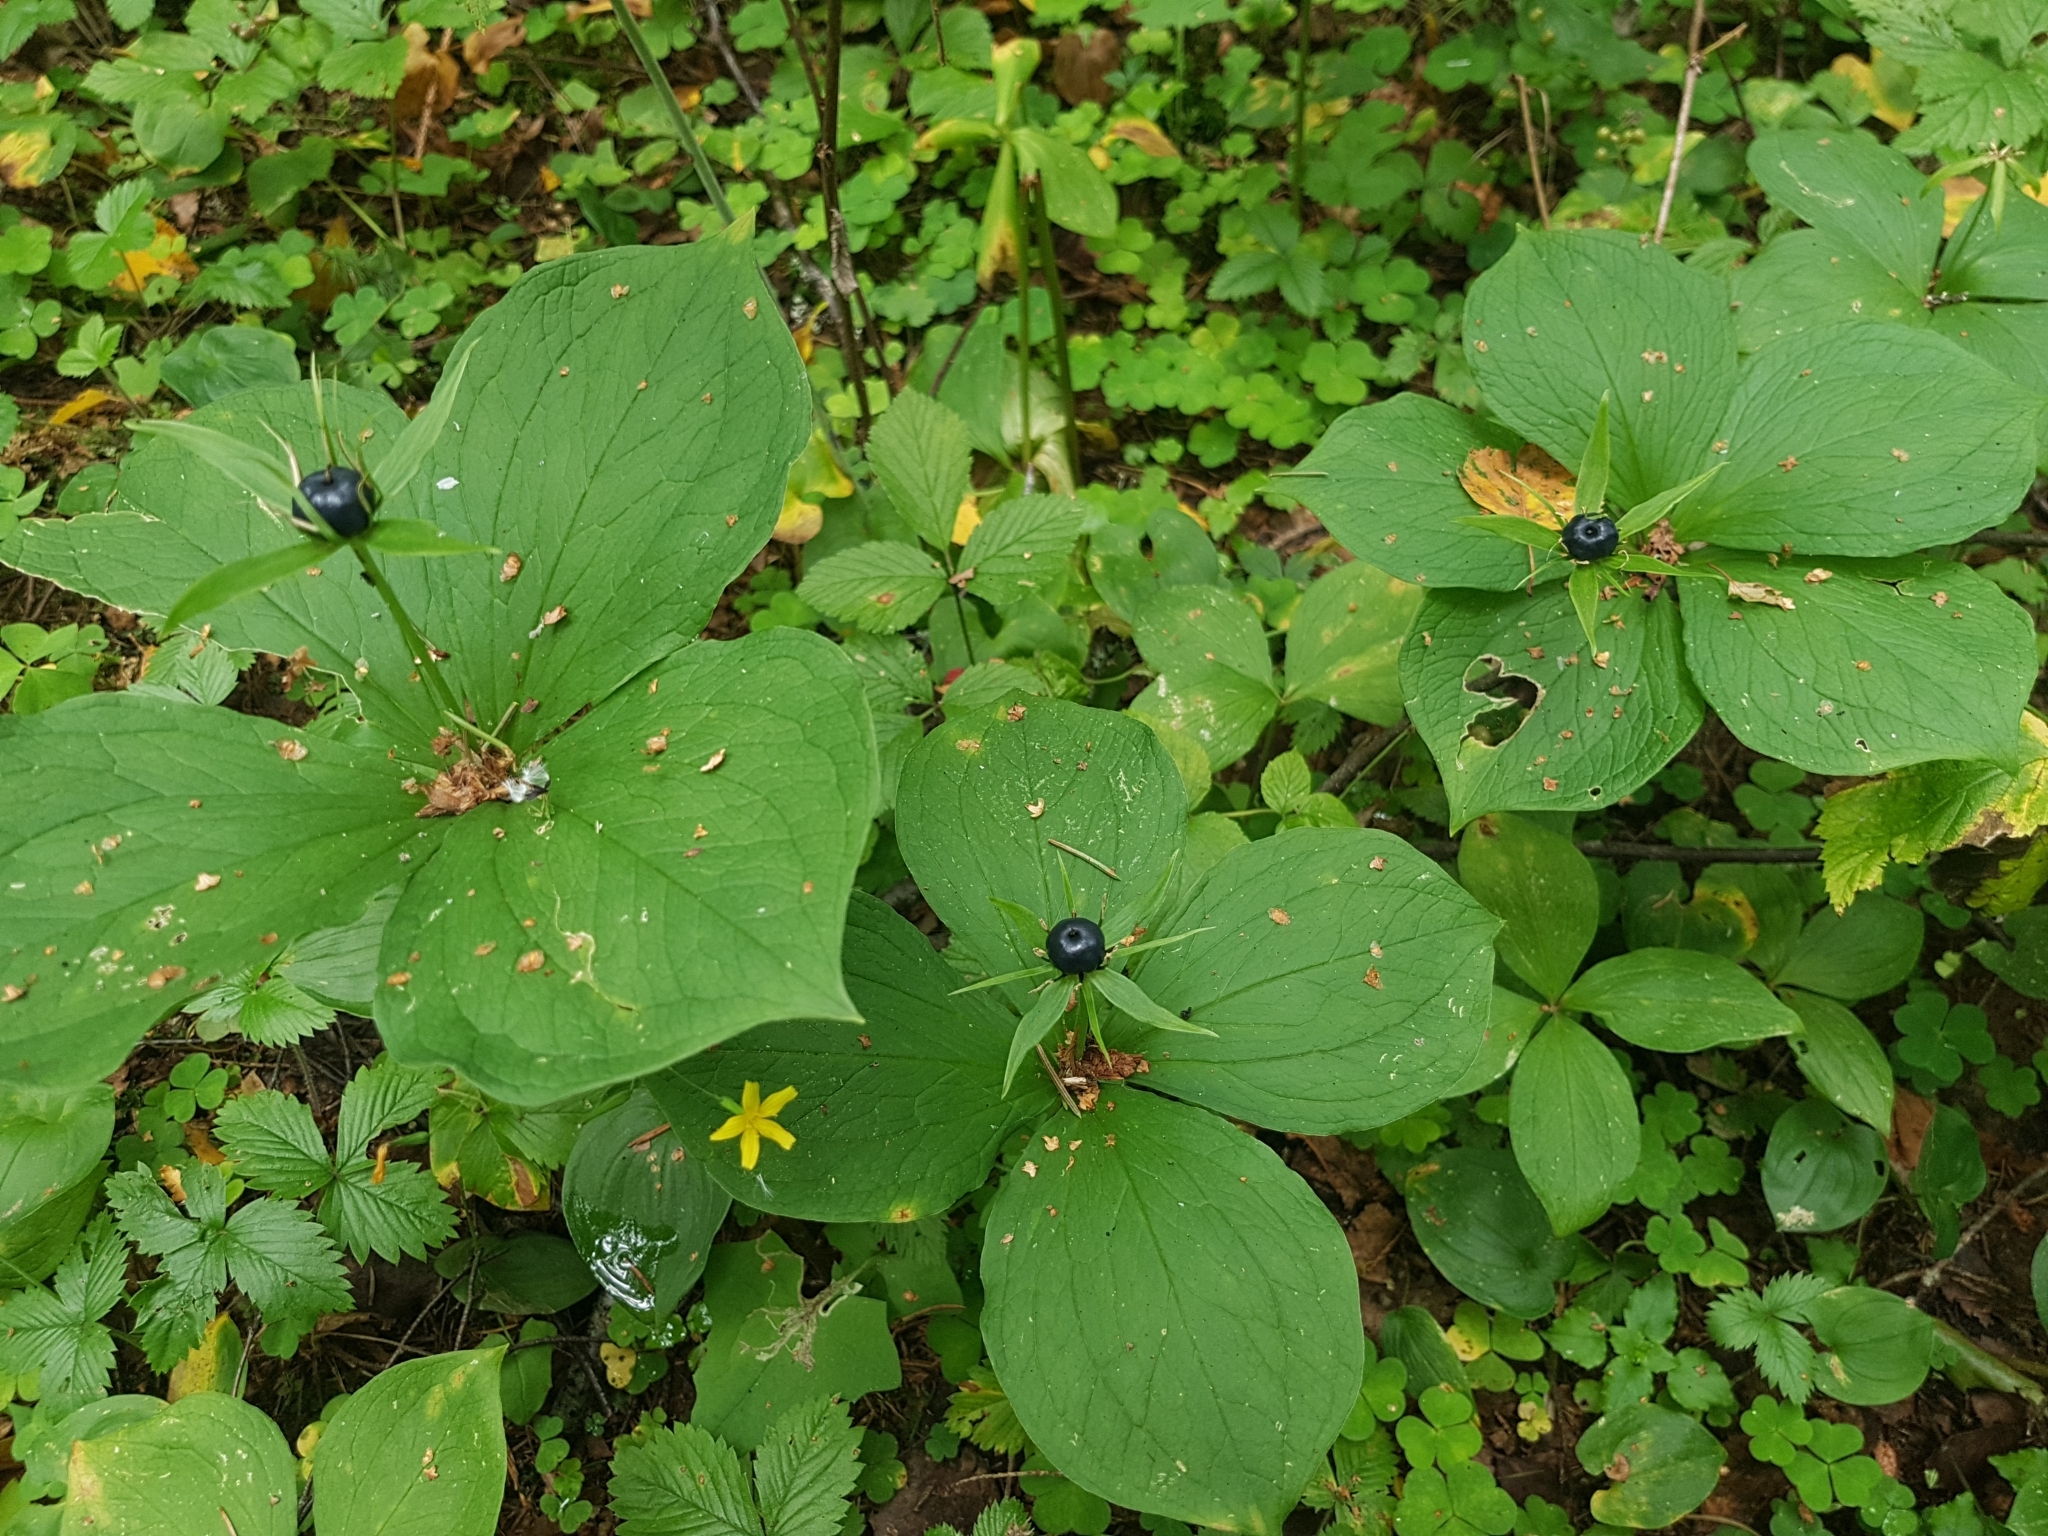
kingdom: Plantae
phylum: Tracheophyta
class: Liliopsida
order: Liliales
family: Melanthiaceae
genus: Paris
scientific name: Paris quadrifolia
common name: Herb-paris
